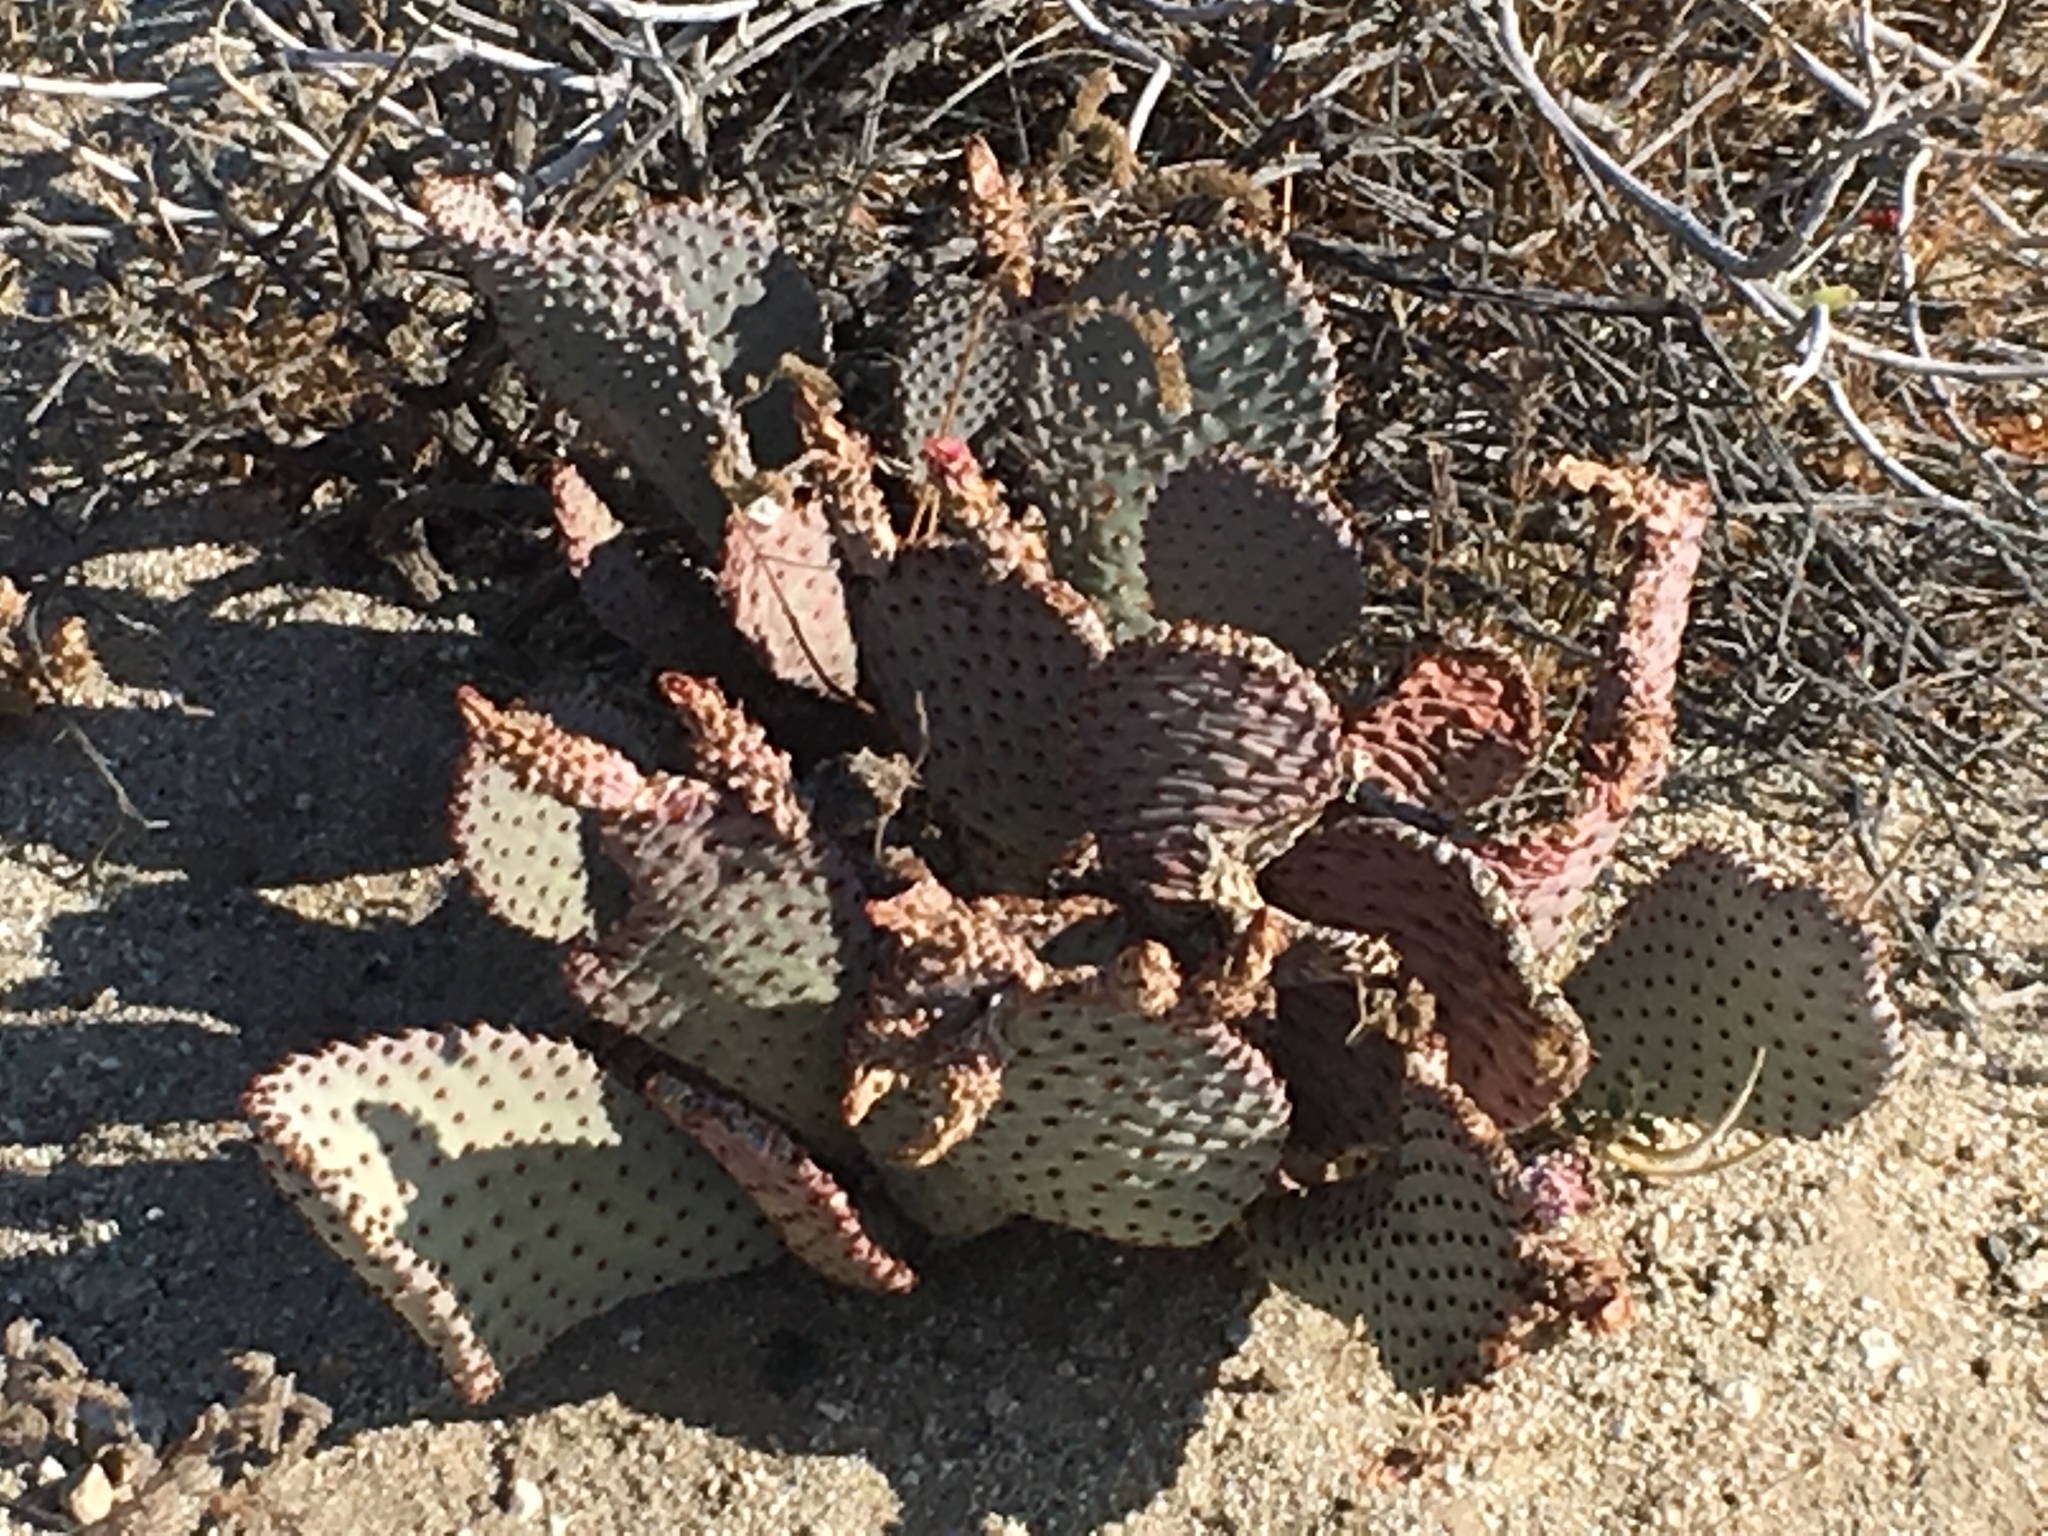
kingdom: Plantae
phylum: Tracheophyta
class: Magnoliopsida
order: Caryophyllales
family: Cactaceae
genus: Opuntia
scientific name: Opuntia basilaris
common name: Beavertail prickly-pear
